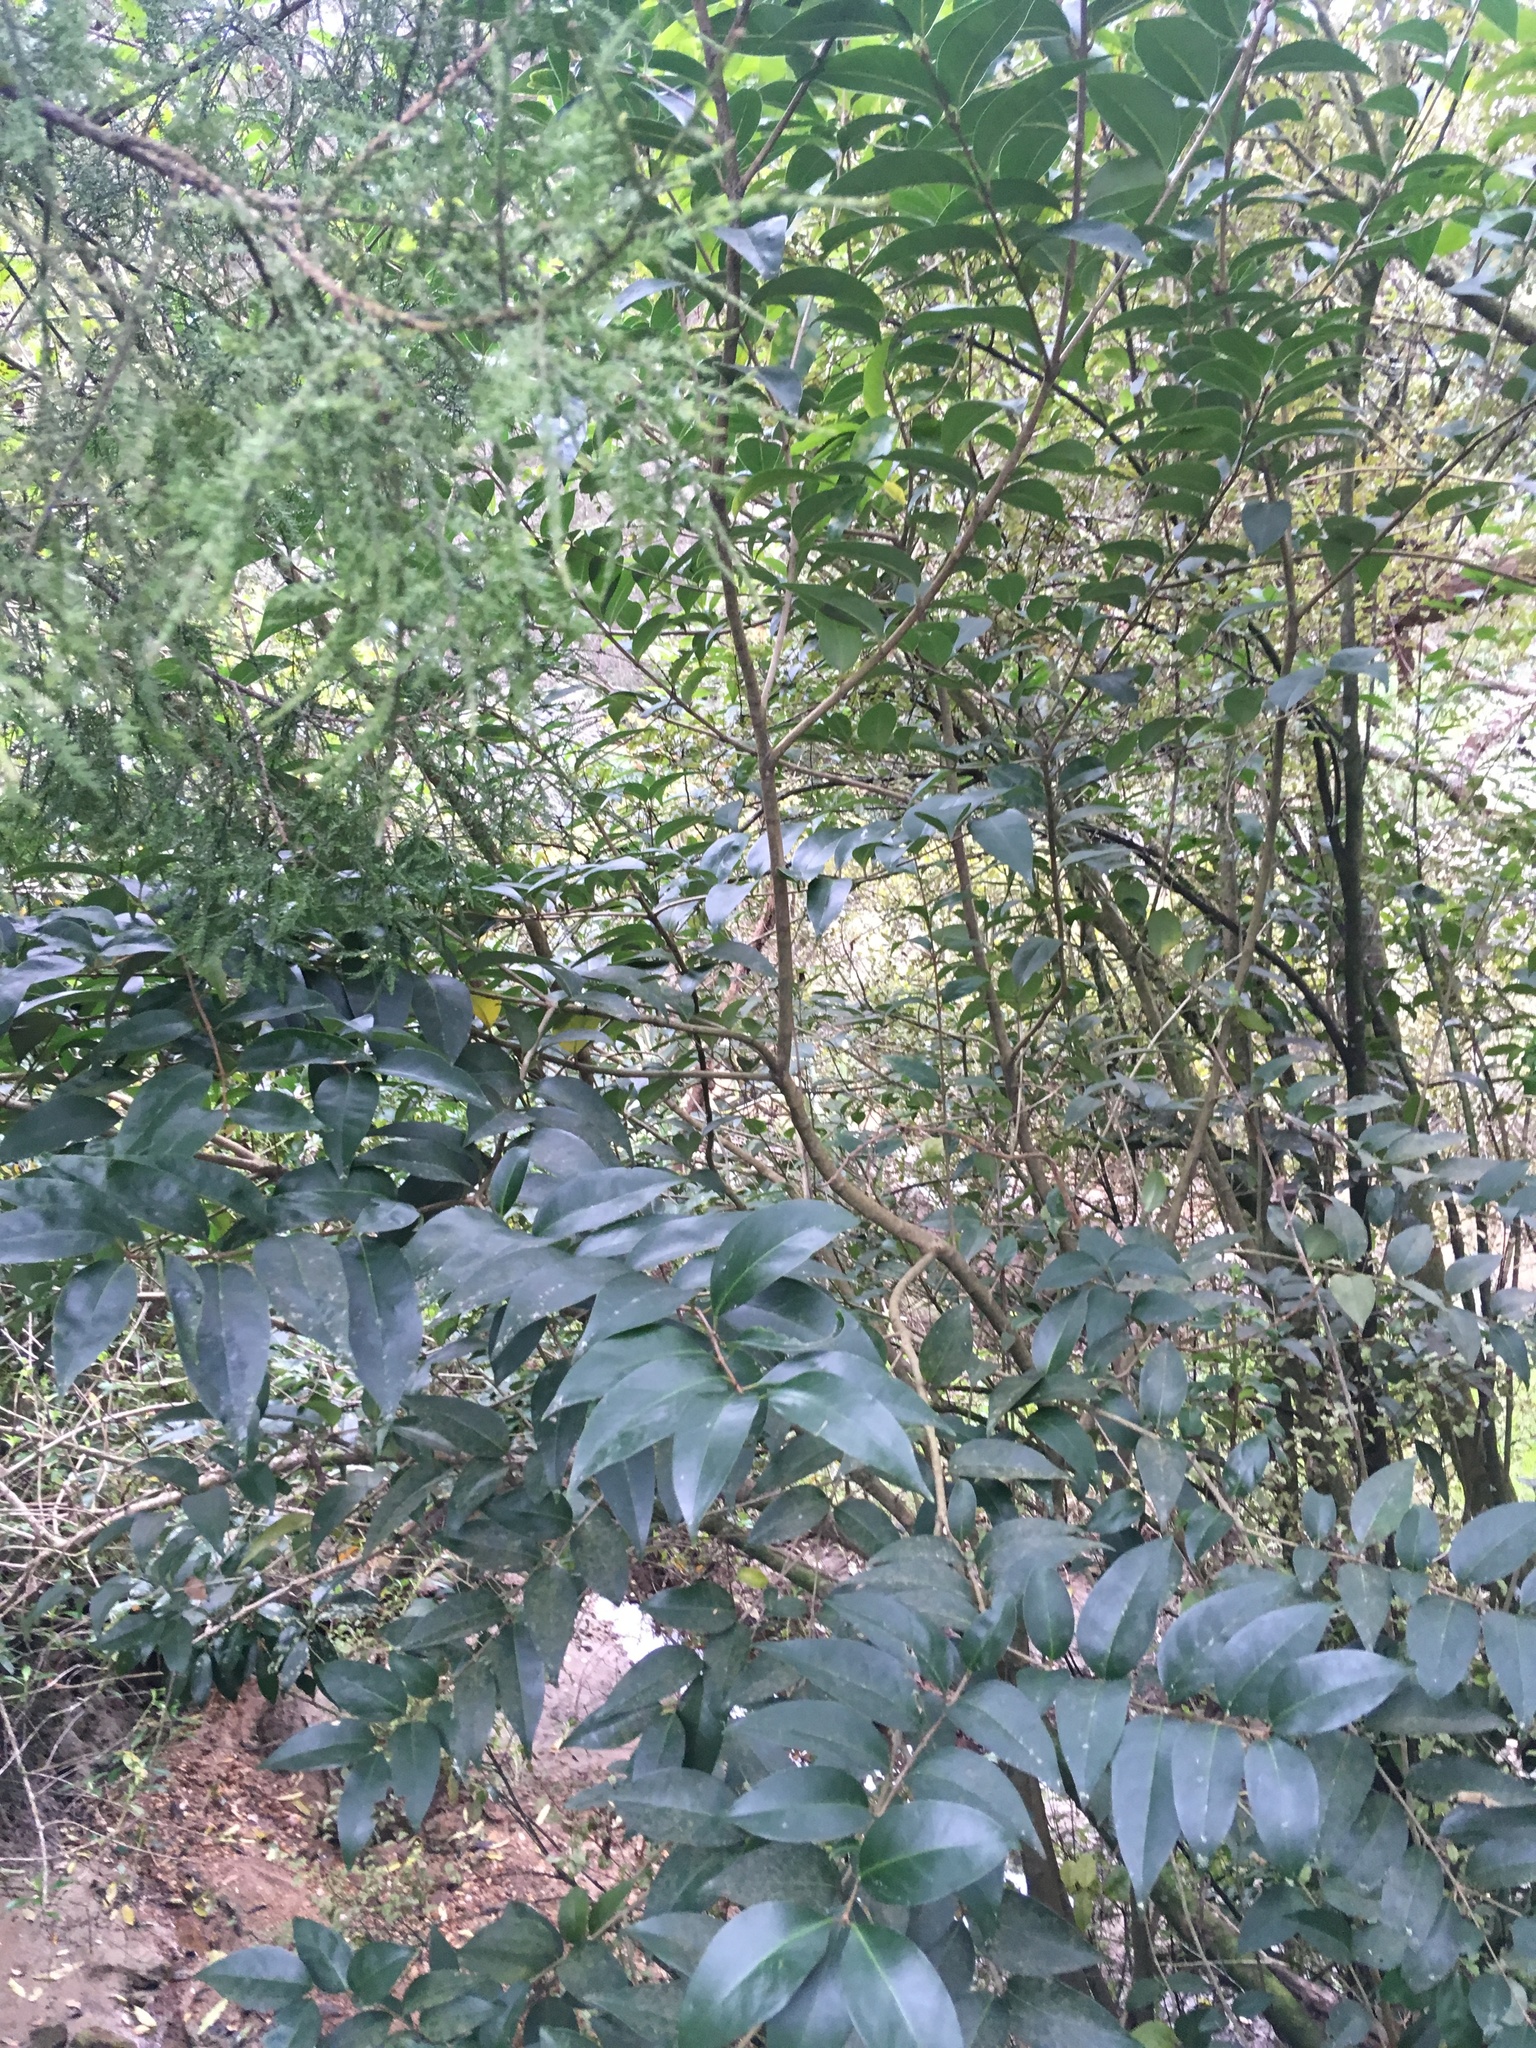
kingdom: Plantae
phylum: Tracheophyta
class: Magnoliopsida
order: Lamiales
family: Oleaceae
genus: Ligustrum
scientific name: Ligustrum lucidum
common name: Glossy privet
